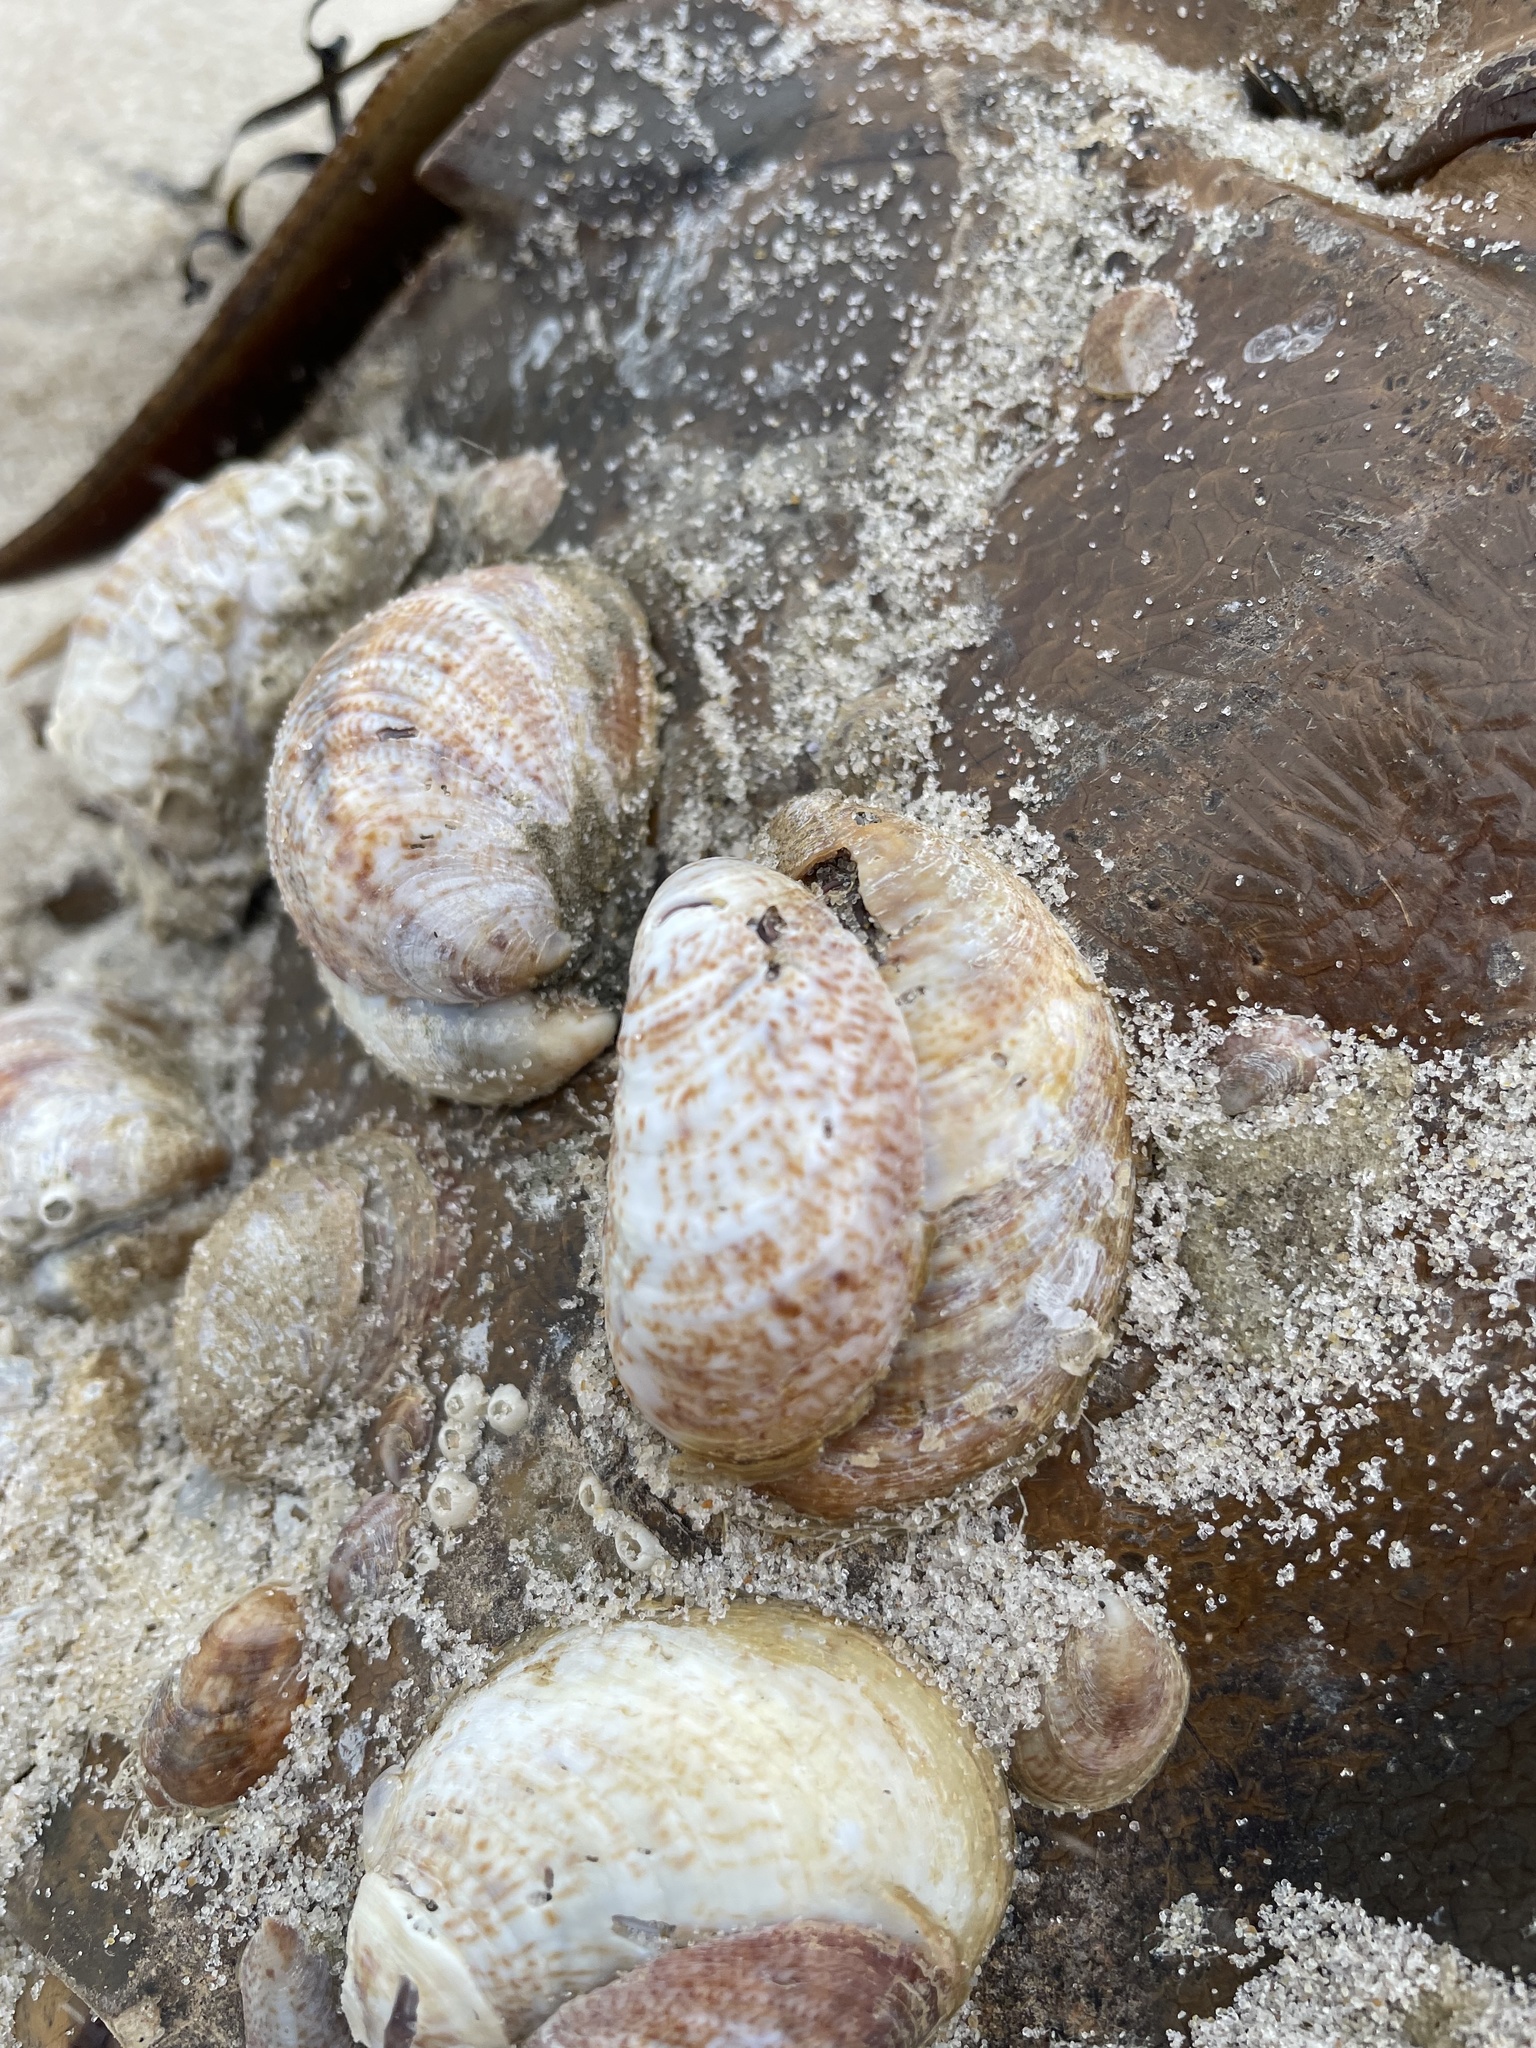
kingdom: Animalia
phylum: Mollusca
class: Gastropoda
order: Littorinimorpha
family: Calyptraeidae
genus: Crepidula
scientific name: Crepidula fornicata
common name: Slipper limpet
